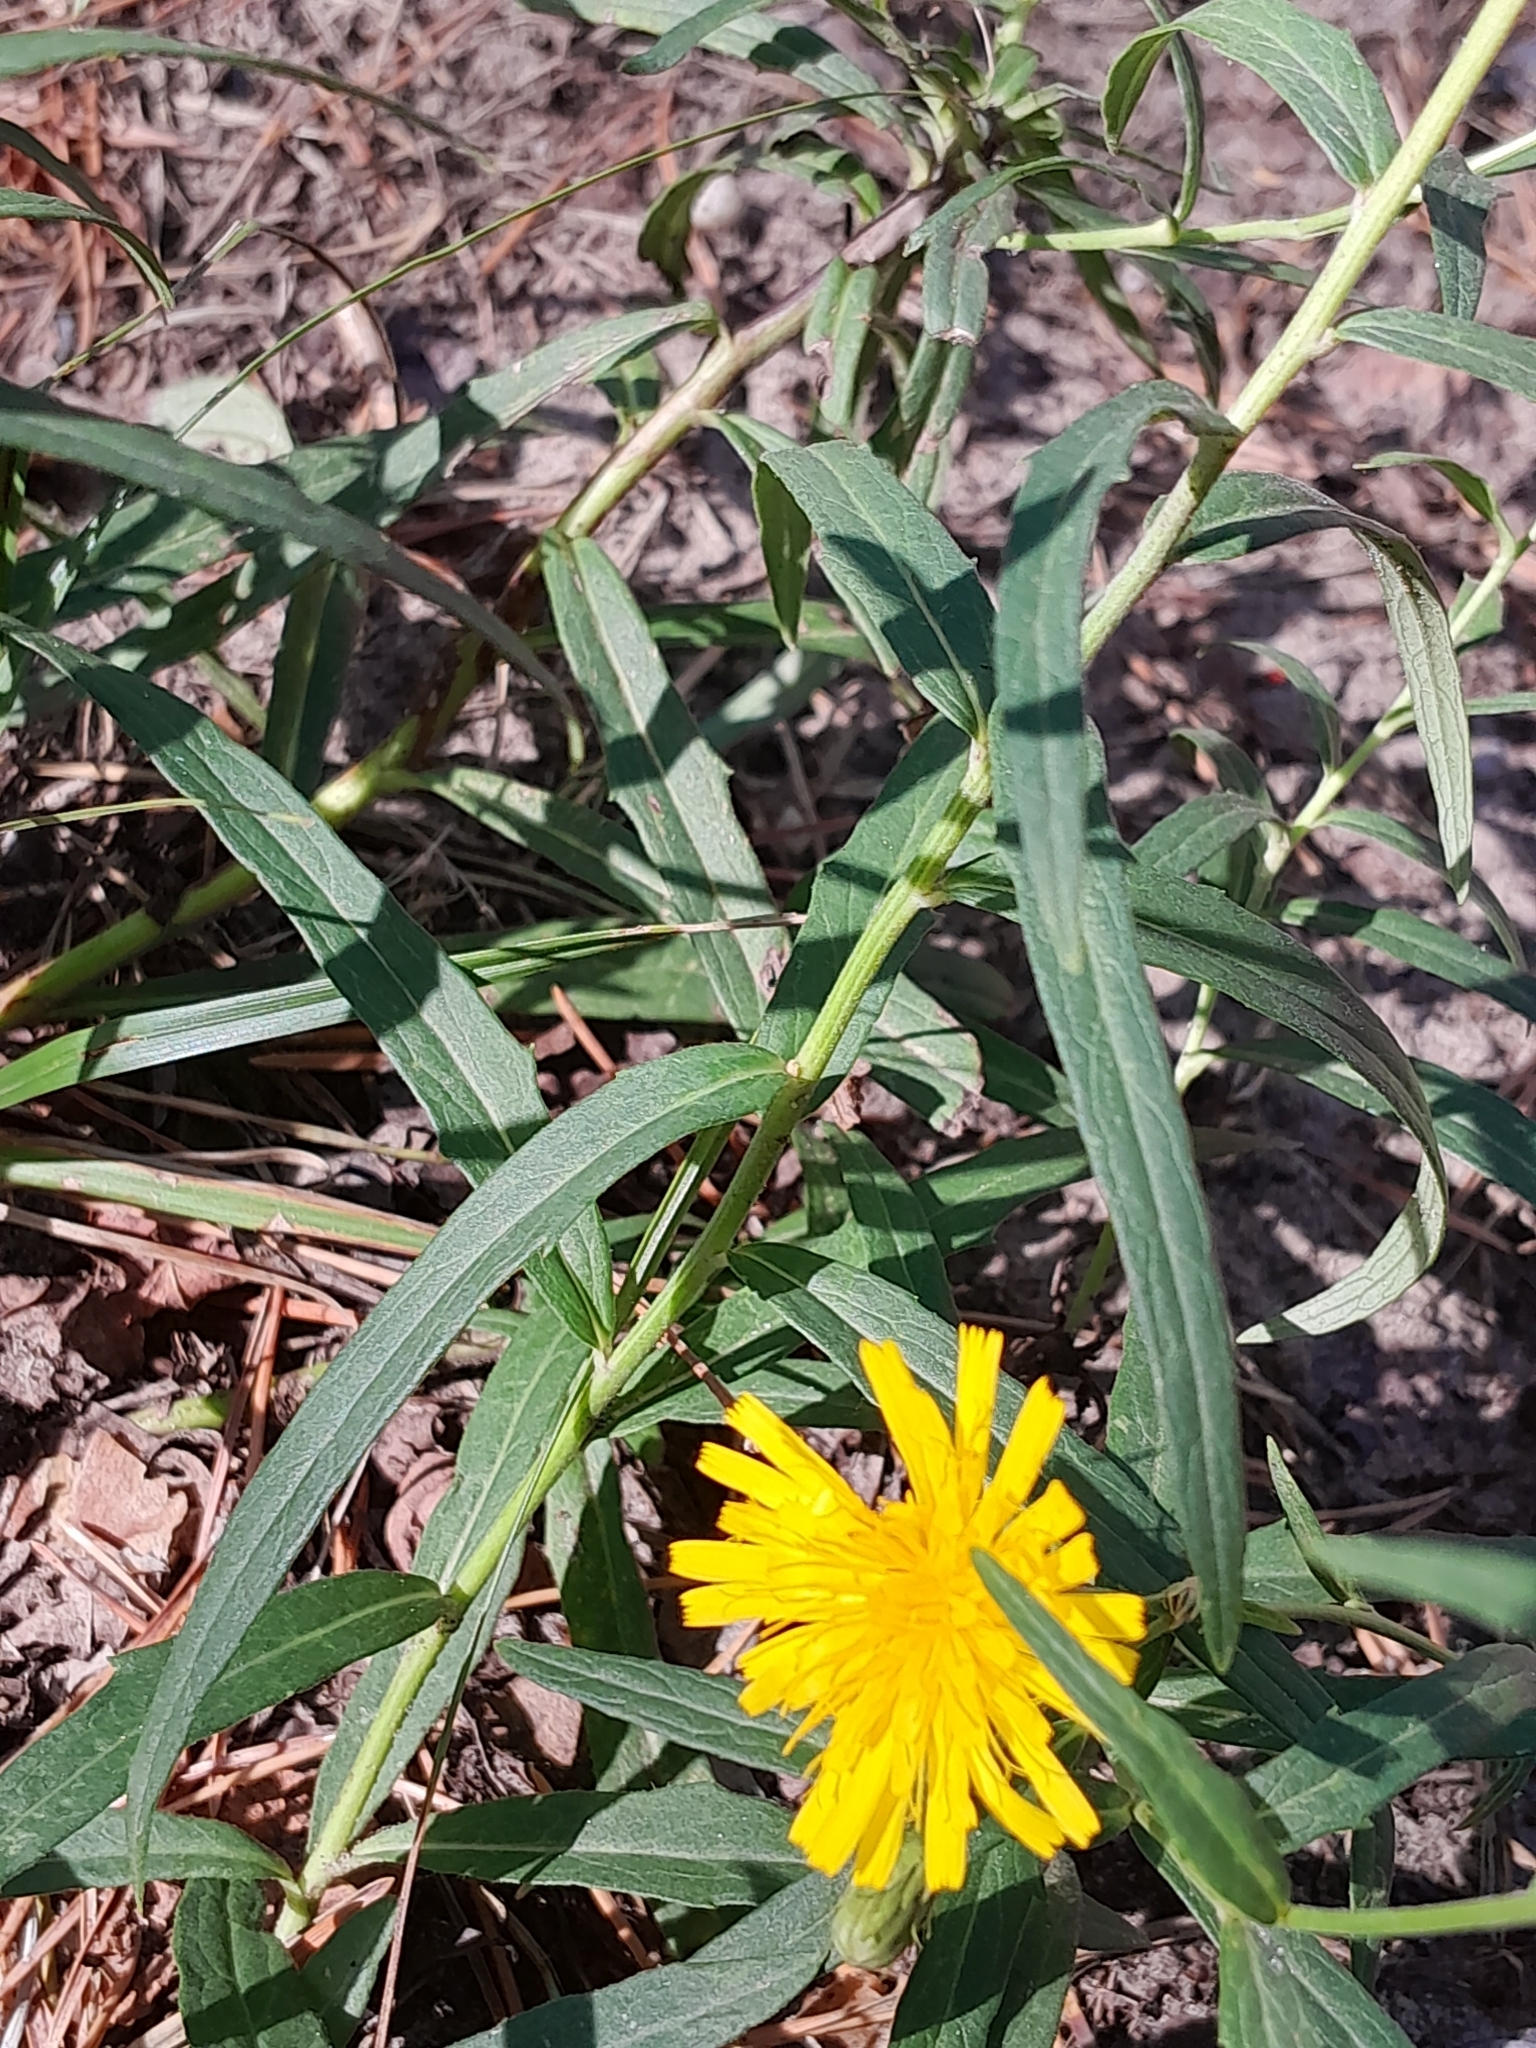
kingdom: Plantae
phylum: Tracheophyta
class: Magnoliopsida
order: Asterales
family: Asteraceae
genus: Hieracium
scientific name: Hieracium umbellatum
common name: Northern hawkweed
